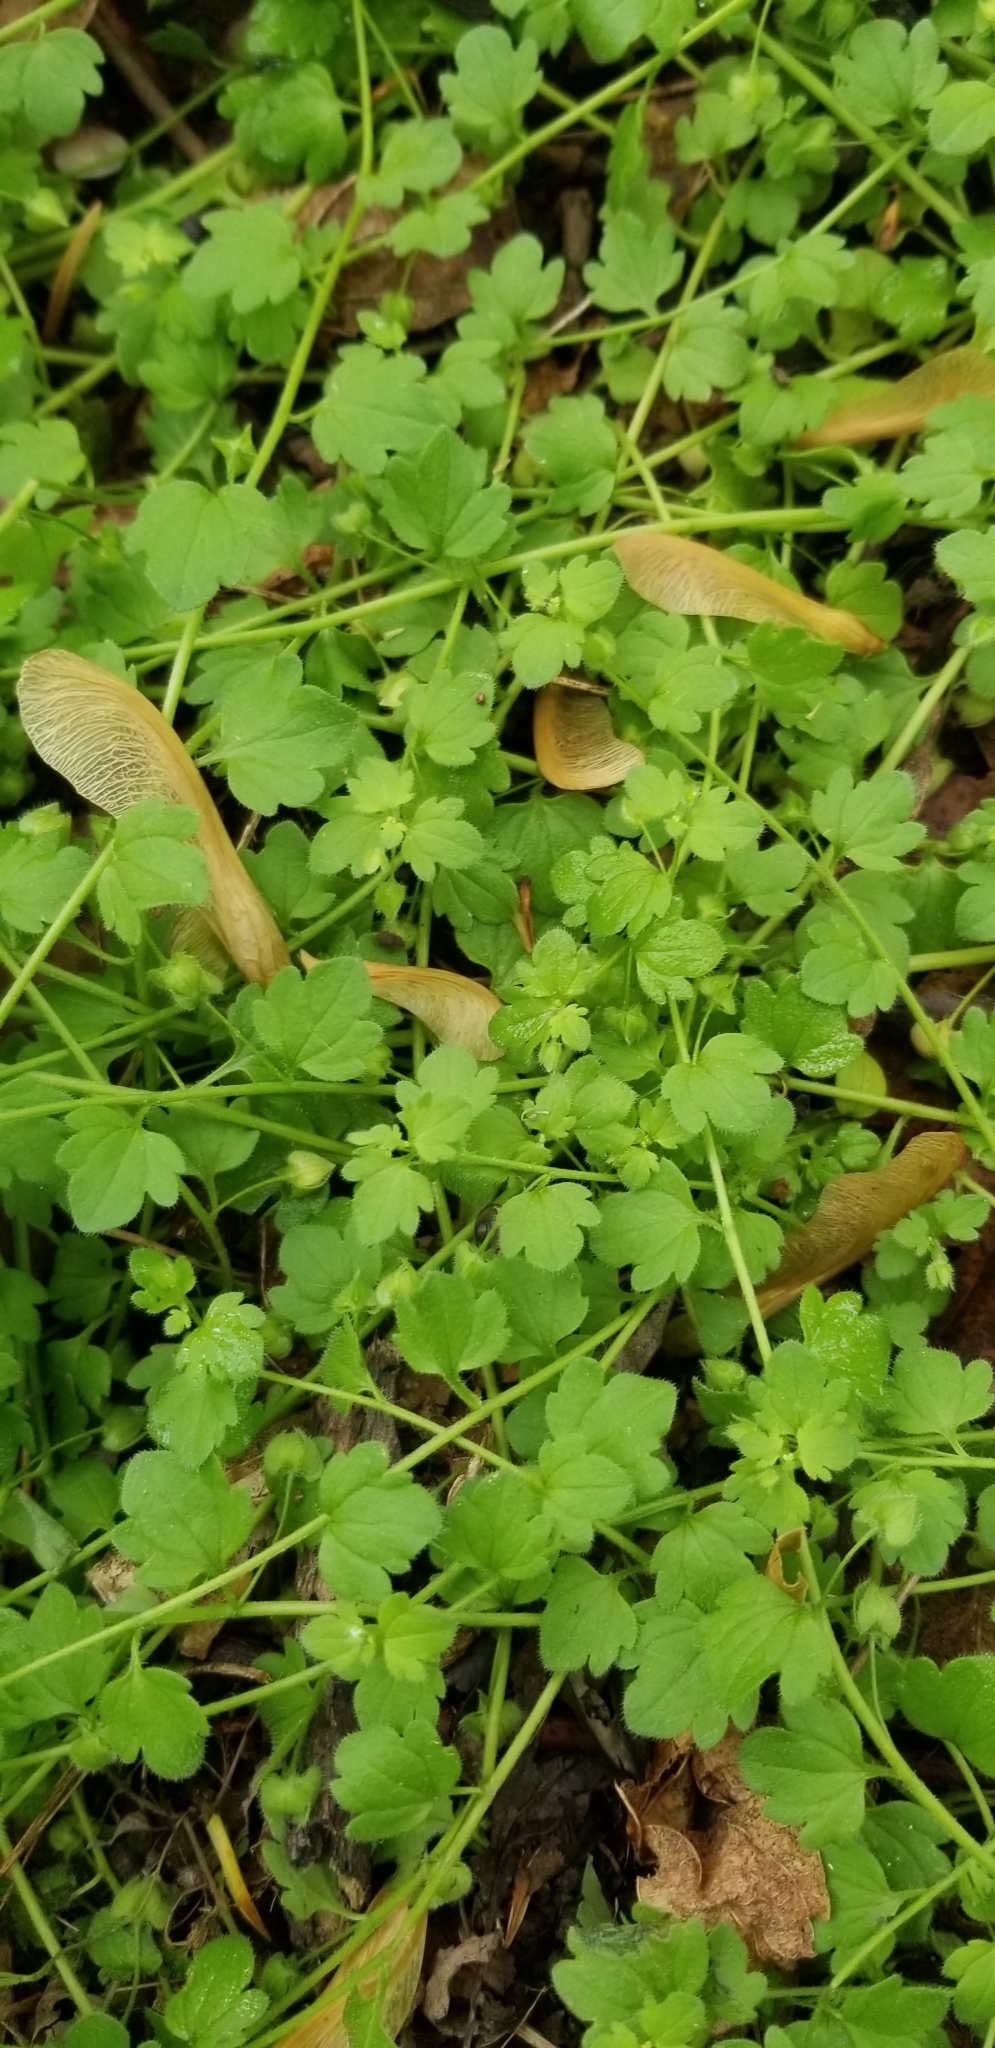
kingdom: Plantae
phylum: Tracheophyta
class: Magnoliopsida
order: Lamiales
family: Plantaginaceae
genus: Veronica
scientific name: Veronica hederifolia
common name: Ivy-leaved speedwell
